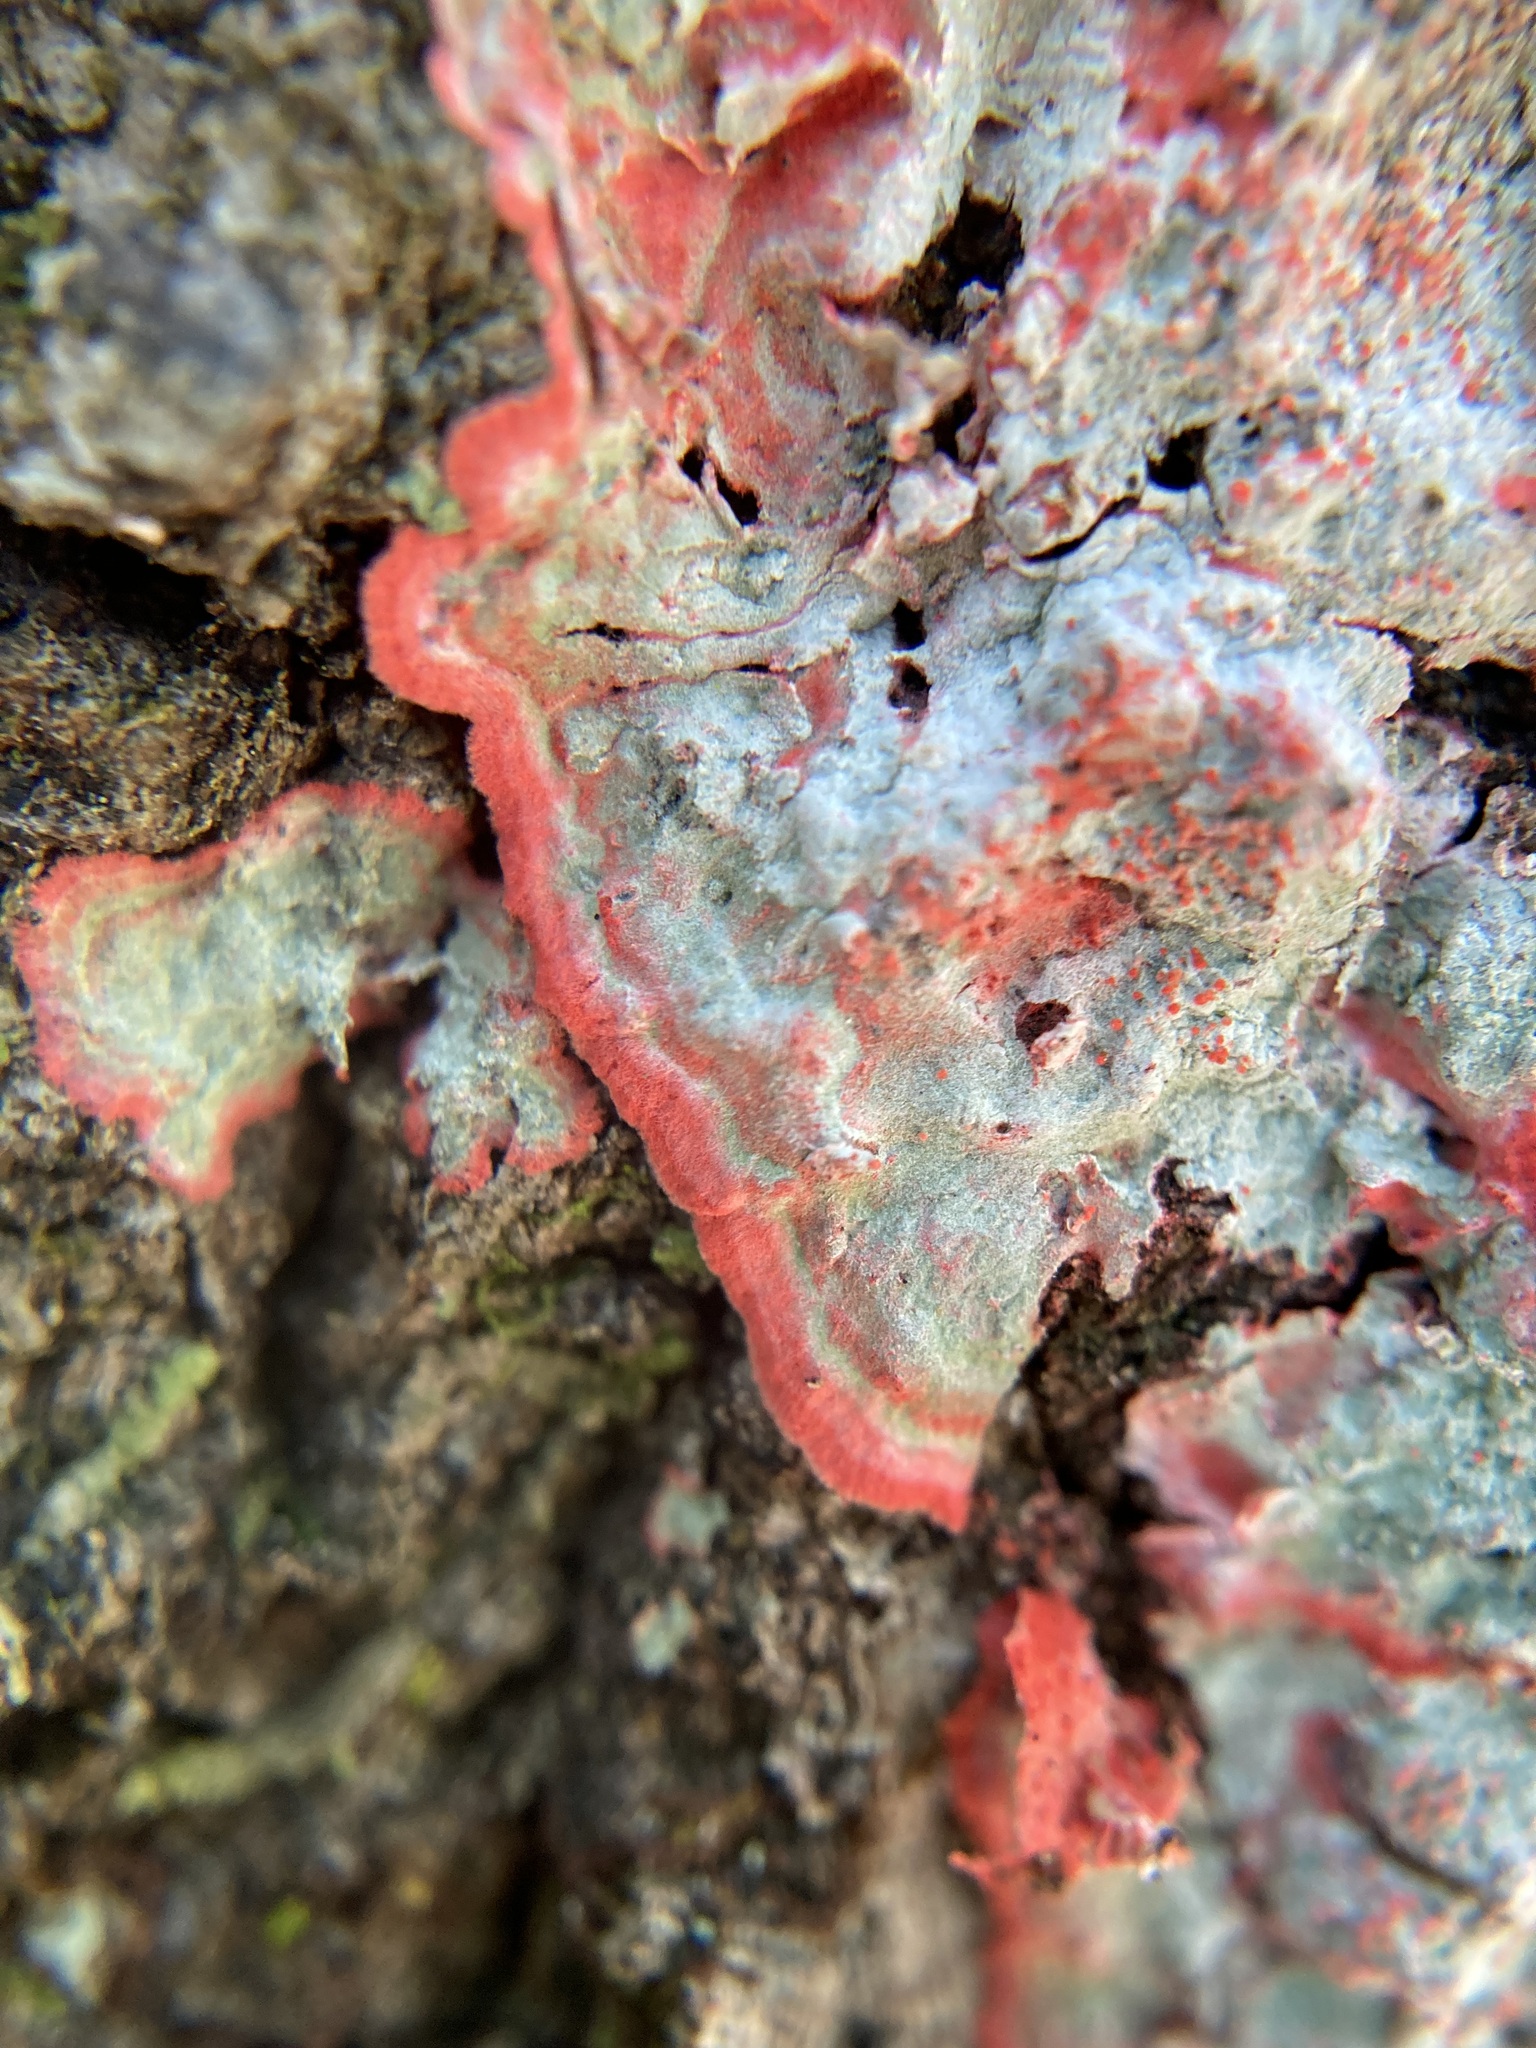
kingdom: Fungi
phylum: Ascomycota
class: Arthoniomycetes
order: Arthoniales
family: Arthoniaceae
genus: Herpothallon
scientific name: Herpothallon rubrocinctum
